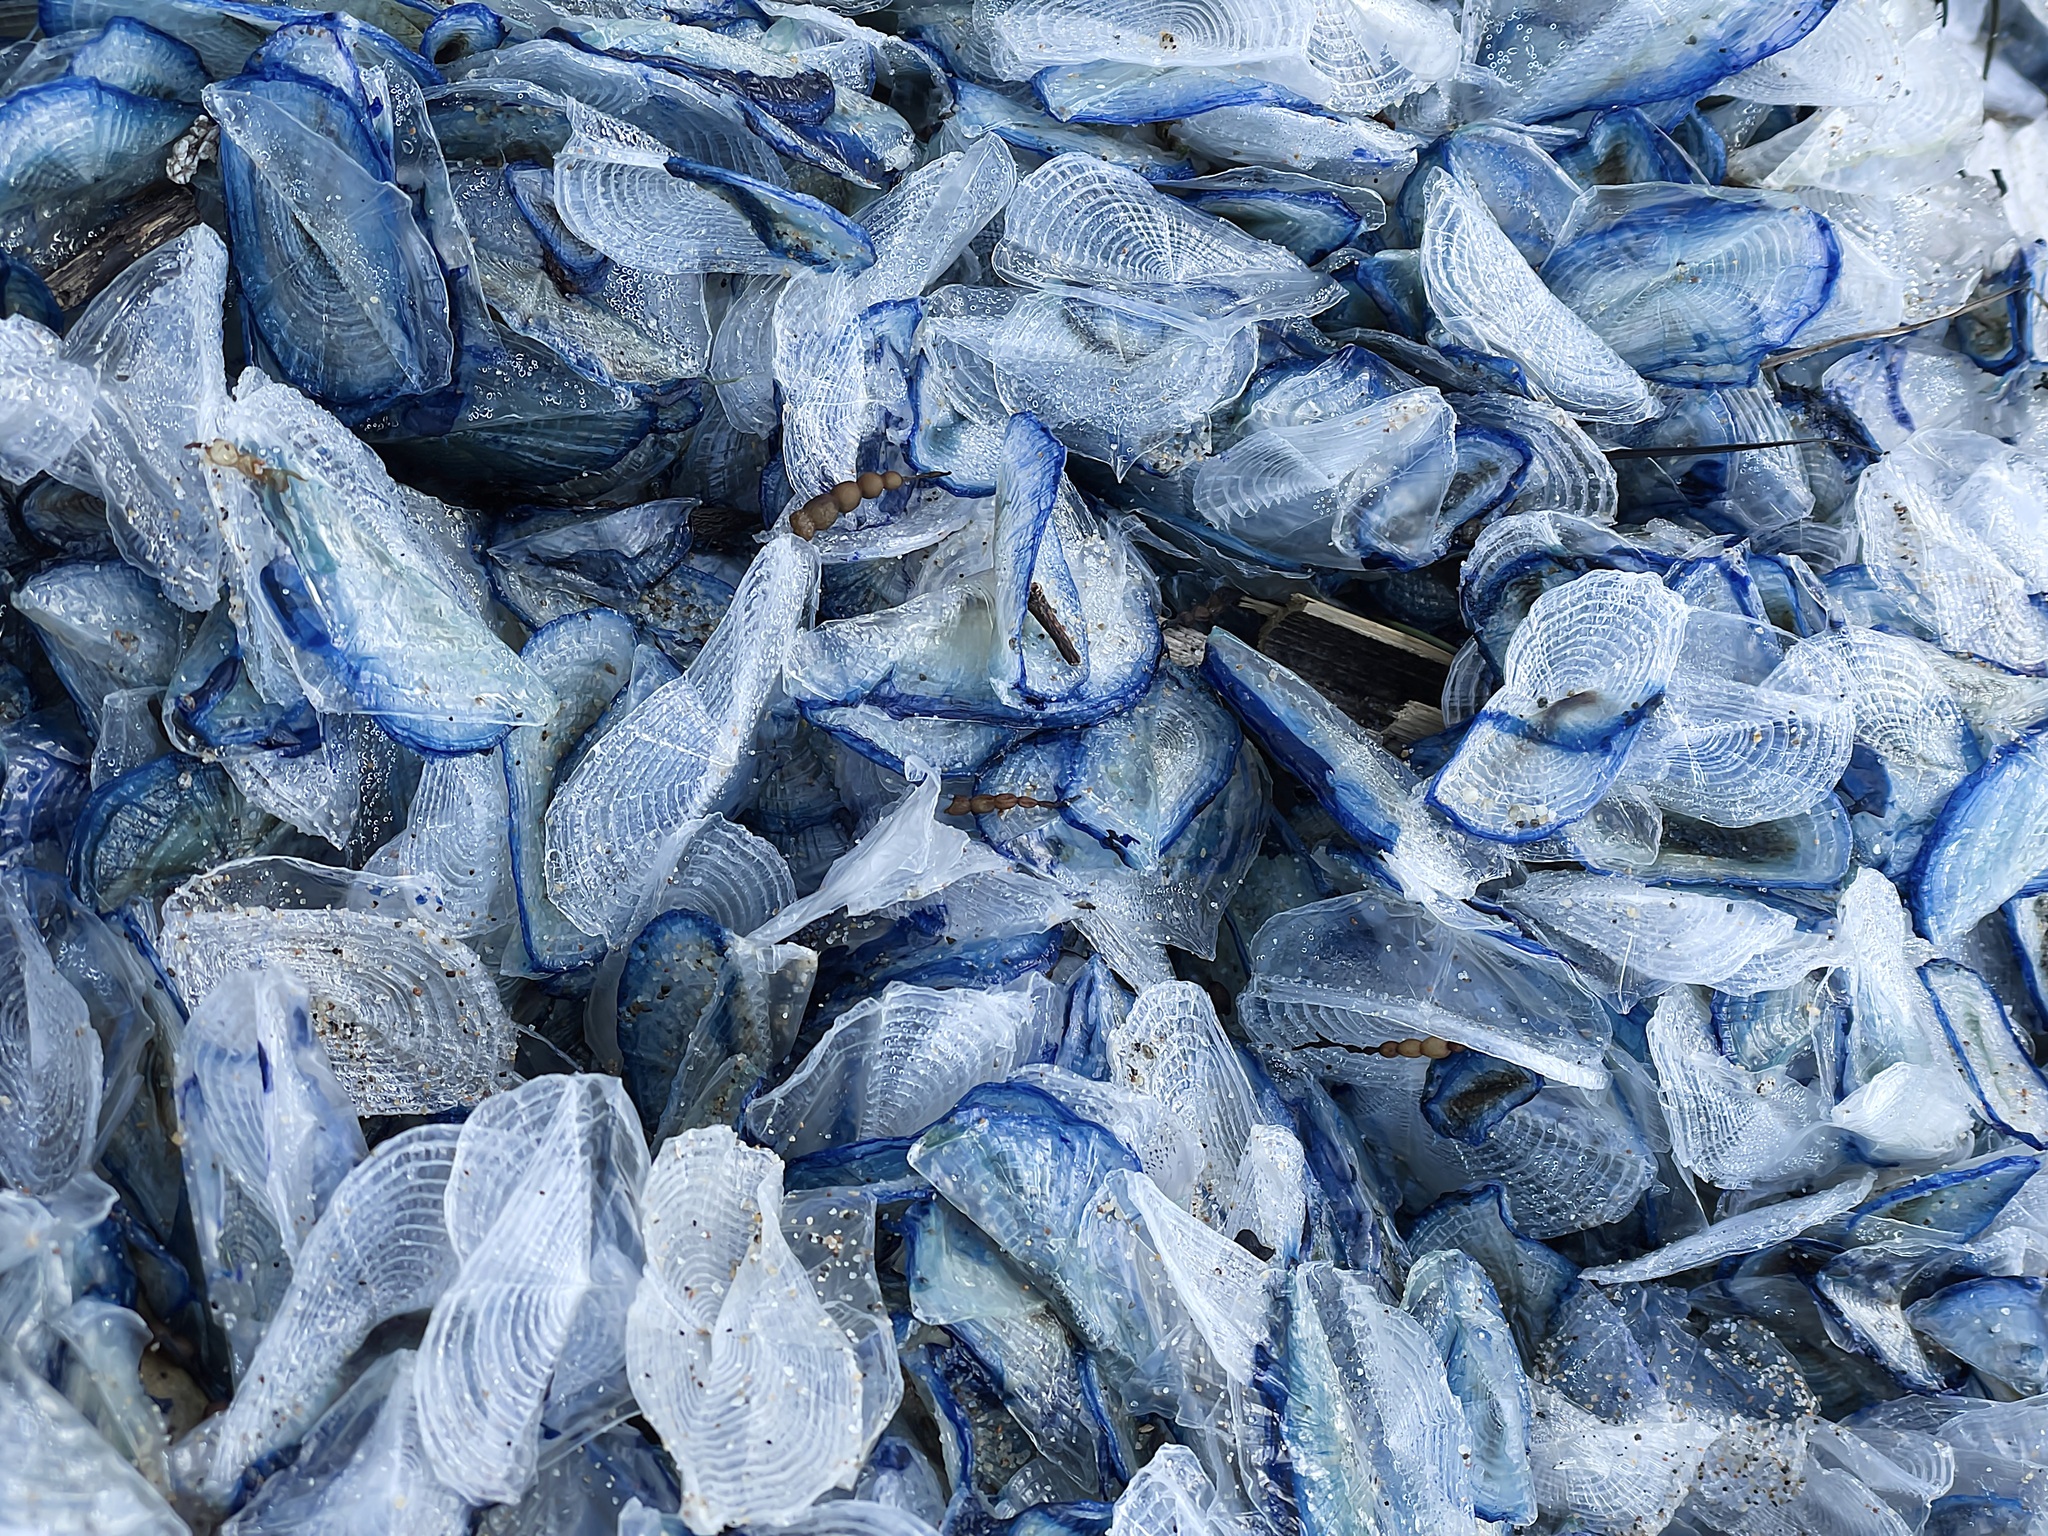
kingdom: Animalia
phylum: Cnidaria
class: Hydrozoa
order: Anthoathecata
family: Porpitidae
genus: Velella
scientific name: Velella velella
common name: By-the-wind-sailor
